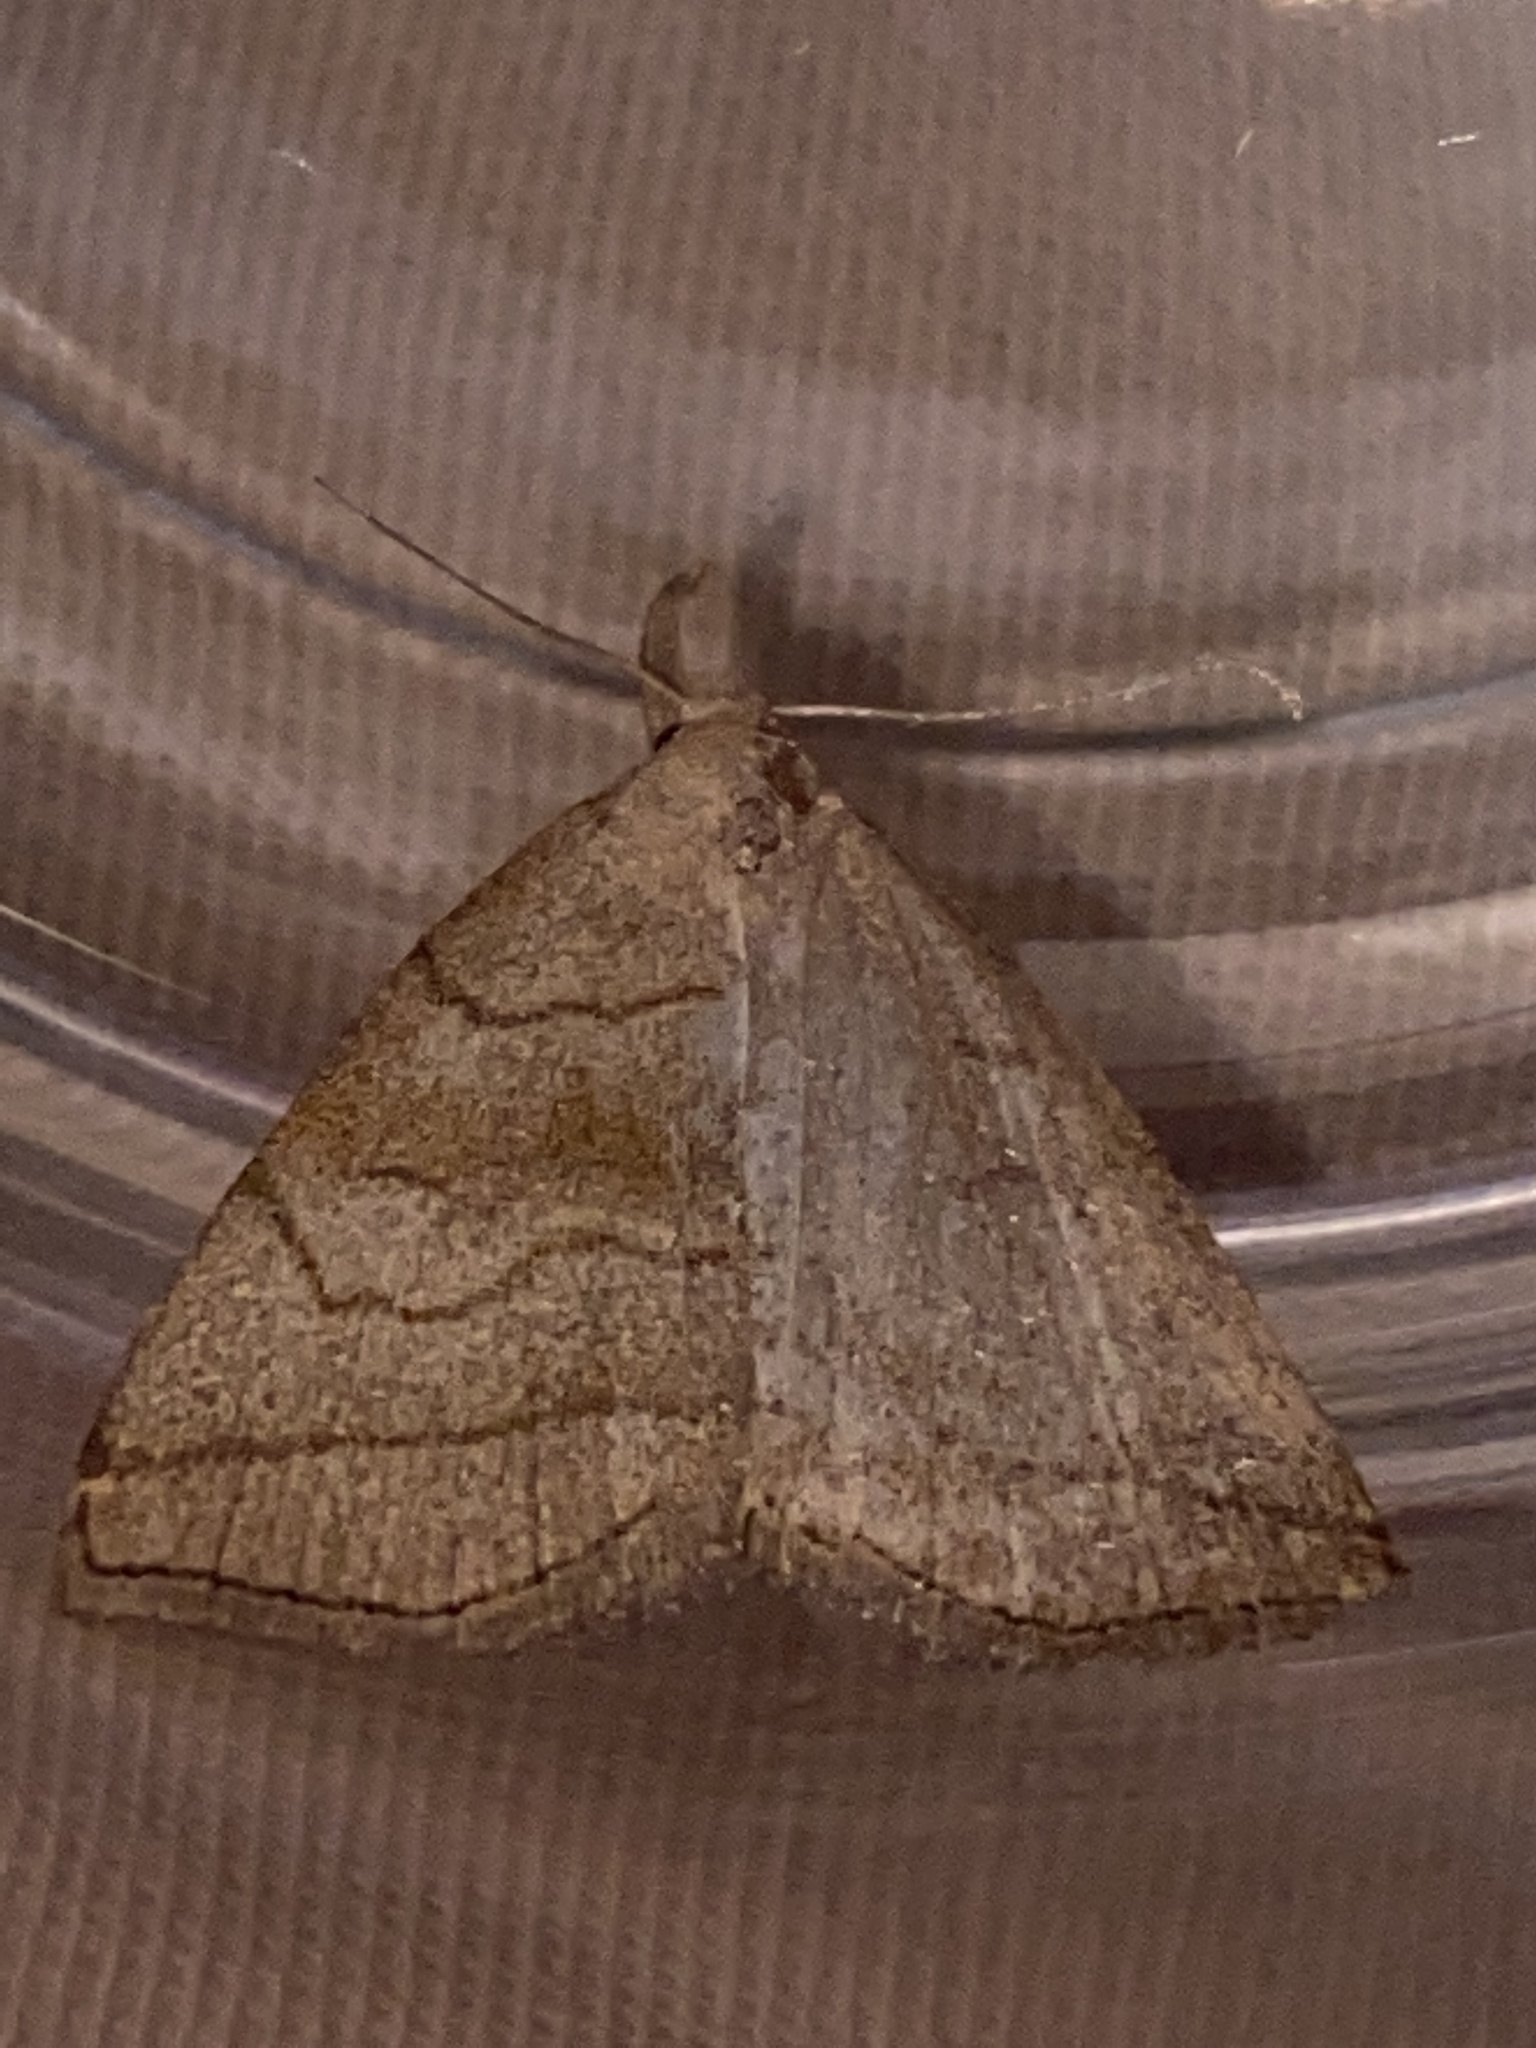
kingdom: Animalia
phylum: Arthropoda
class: Insecta
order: Lepidoptera
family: Erebidae
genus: Polypogon
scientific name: Polypogon tentacularia
